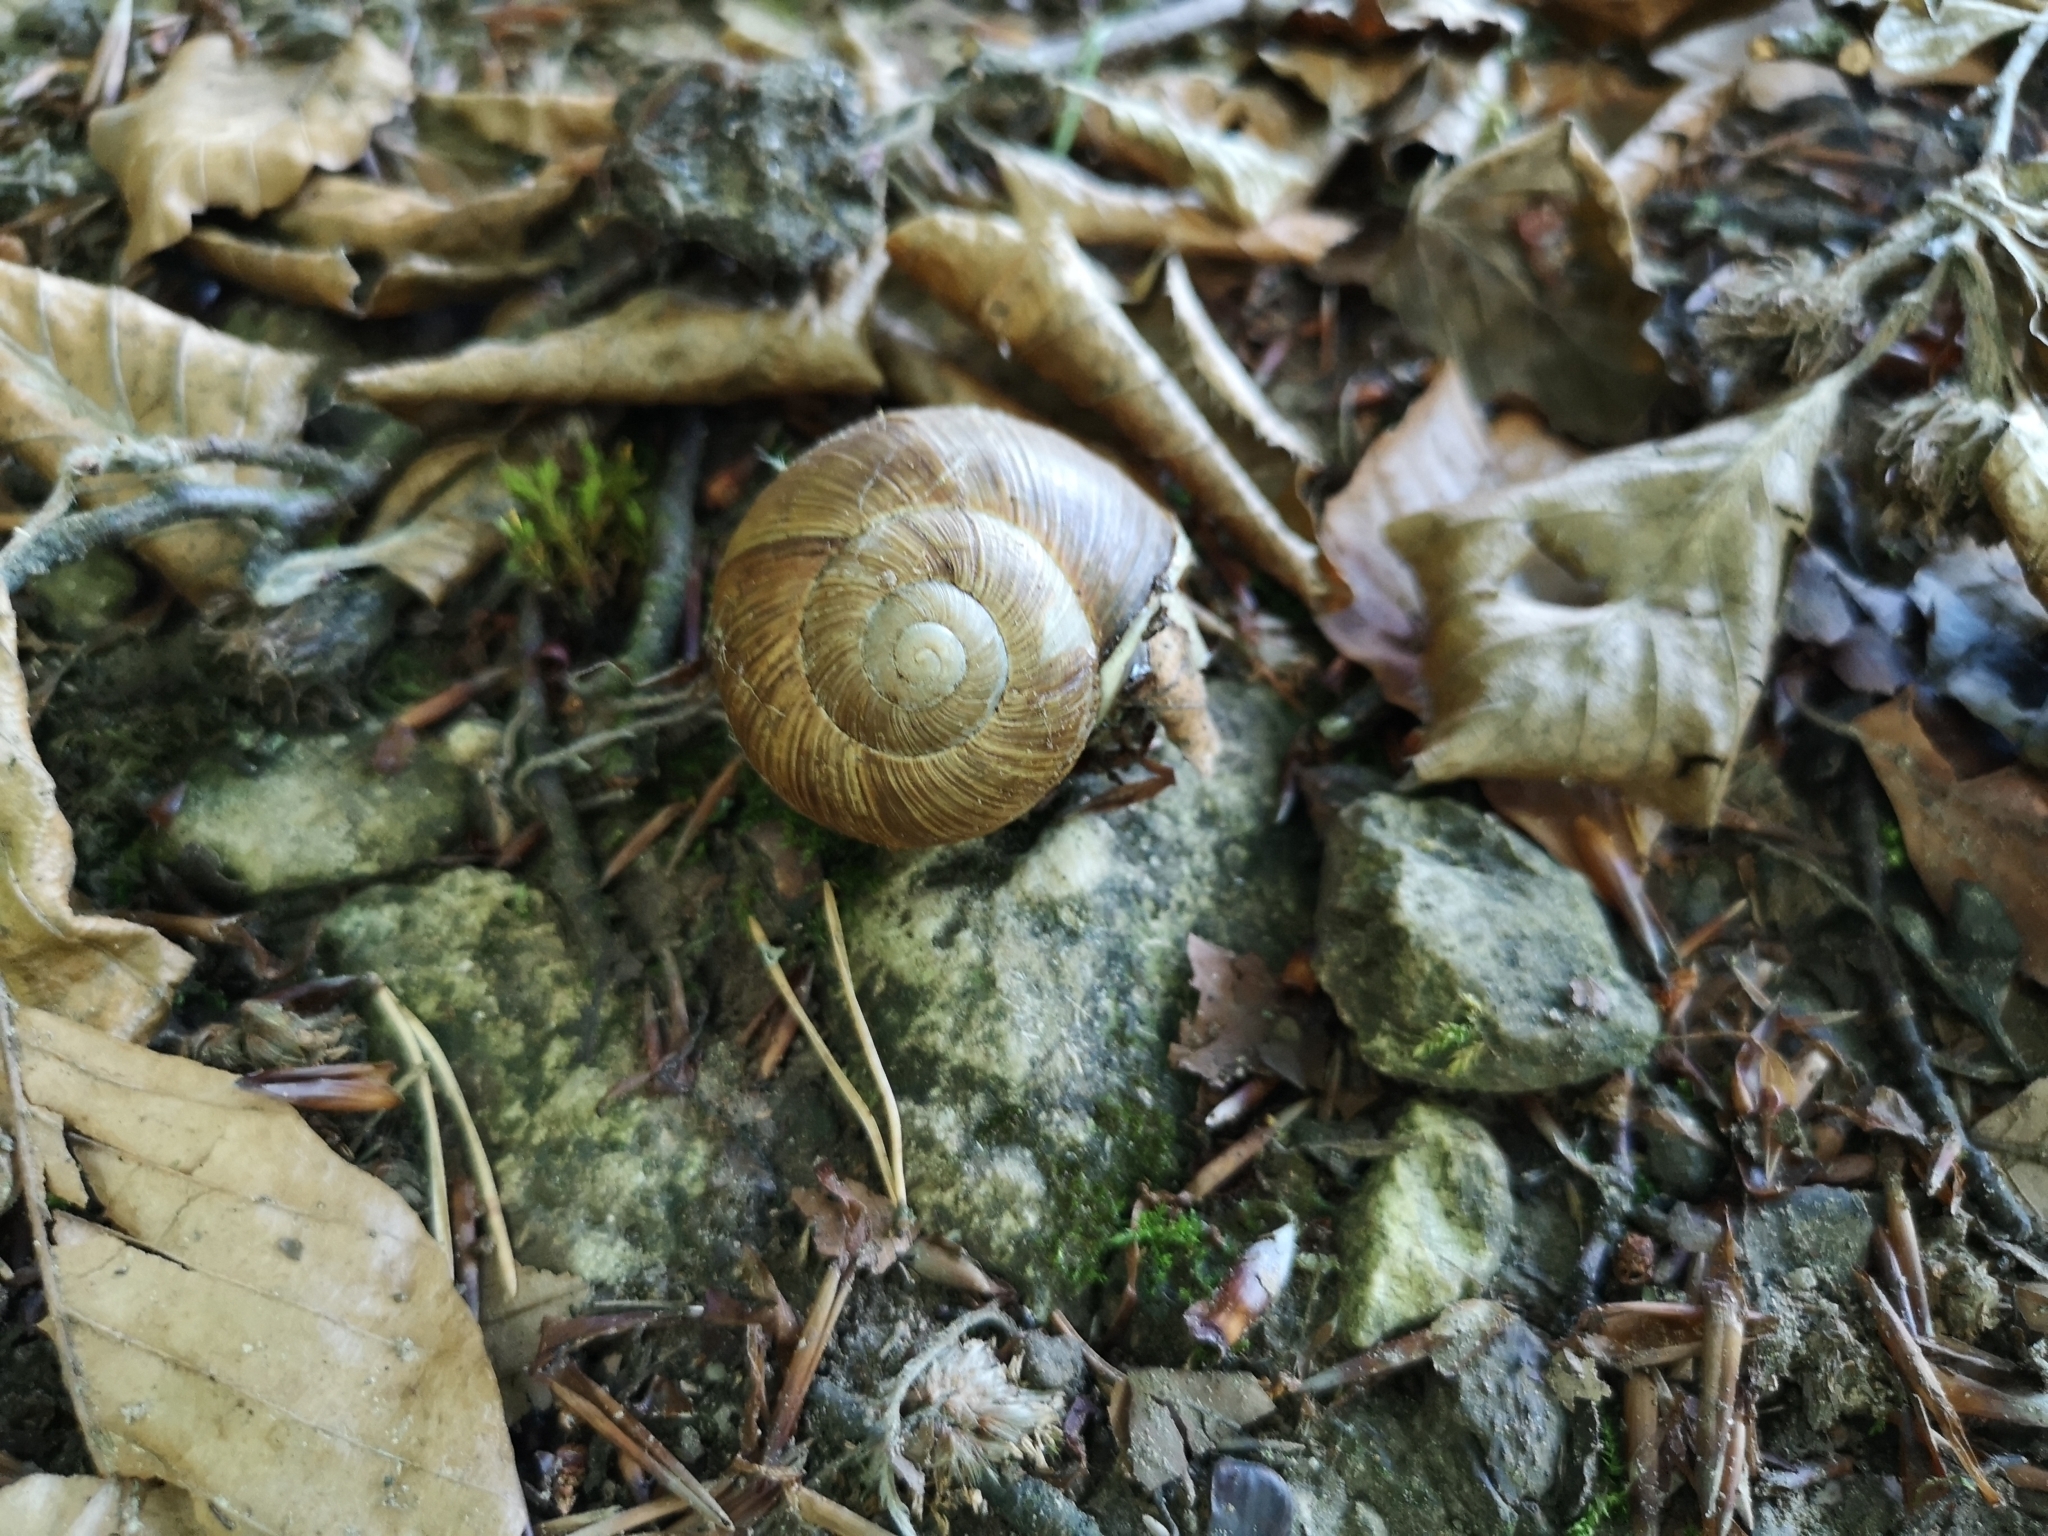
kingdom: Animalia
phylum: Mollusca
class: Gastropoda
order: Stylommatophora
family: Helicidae
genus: Helix
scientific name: Helix pomatia
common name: Roman snail
